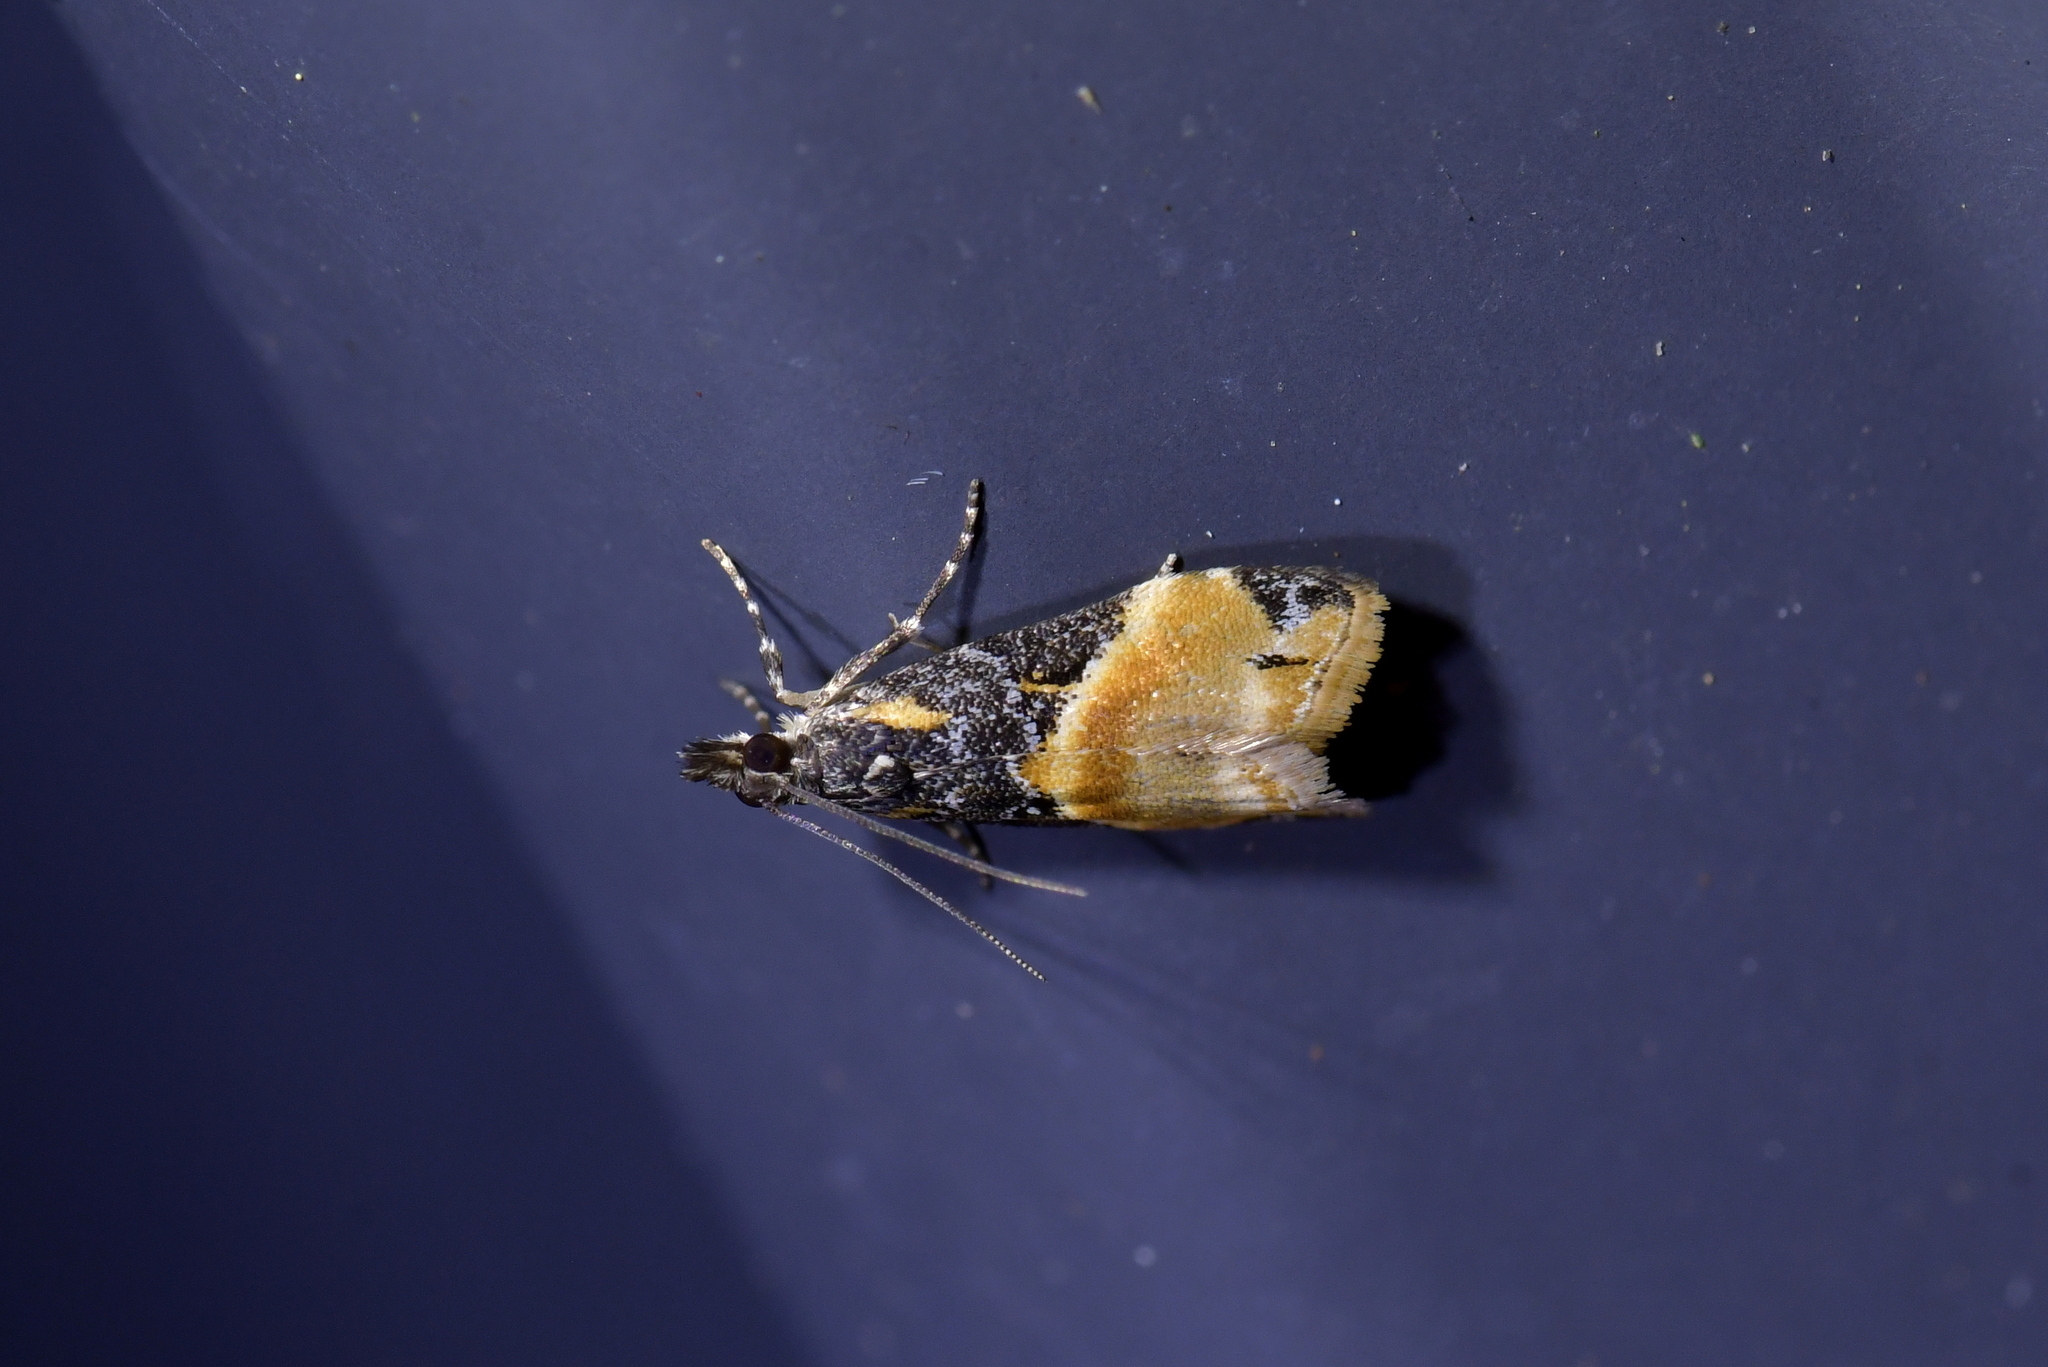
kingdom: Animalia
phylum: Arthropoda
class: Insecta
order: Lepidoptera
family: Crambidae
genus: Eudonia
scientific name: Eudonia chlamydota
